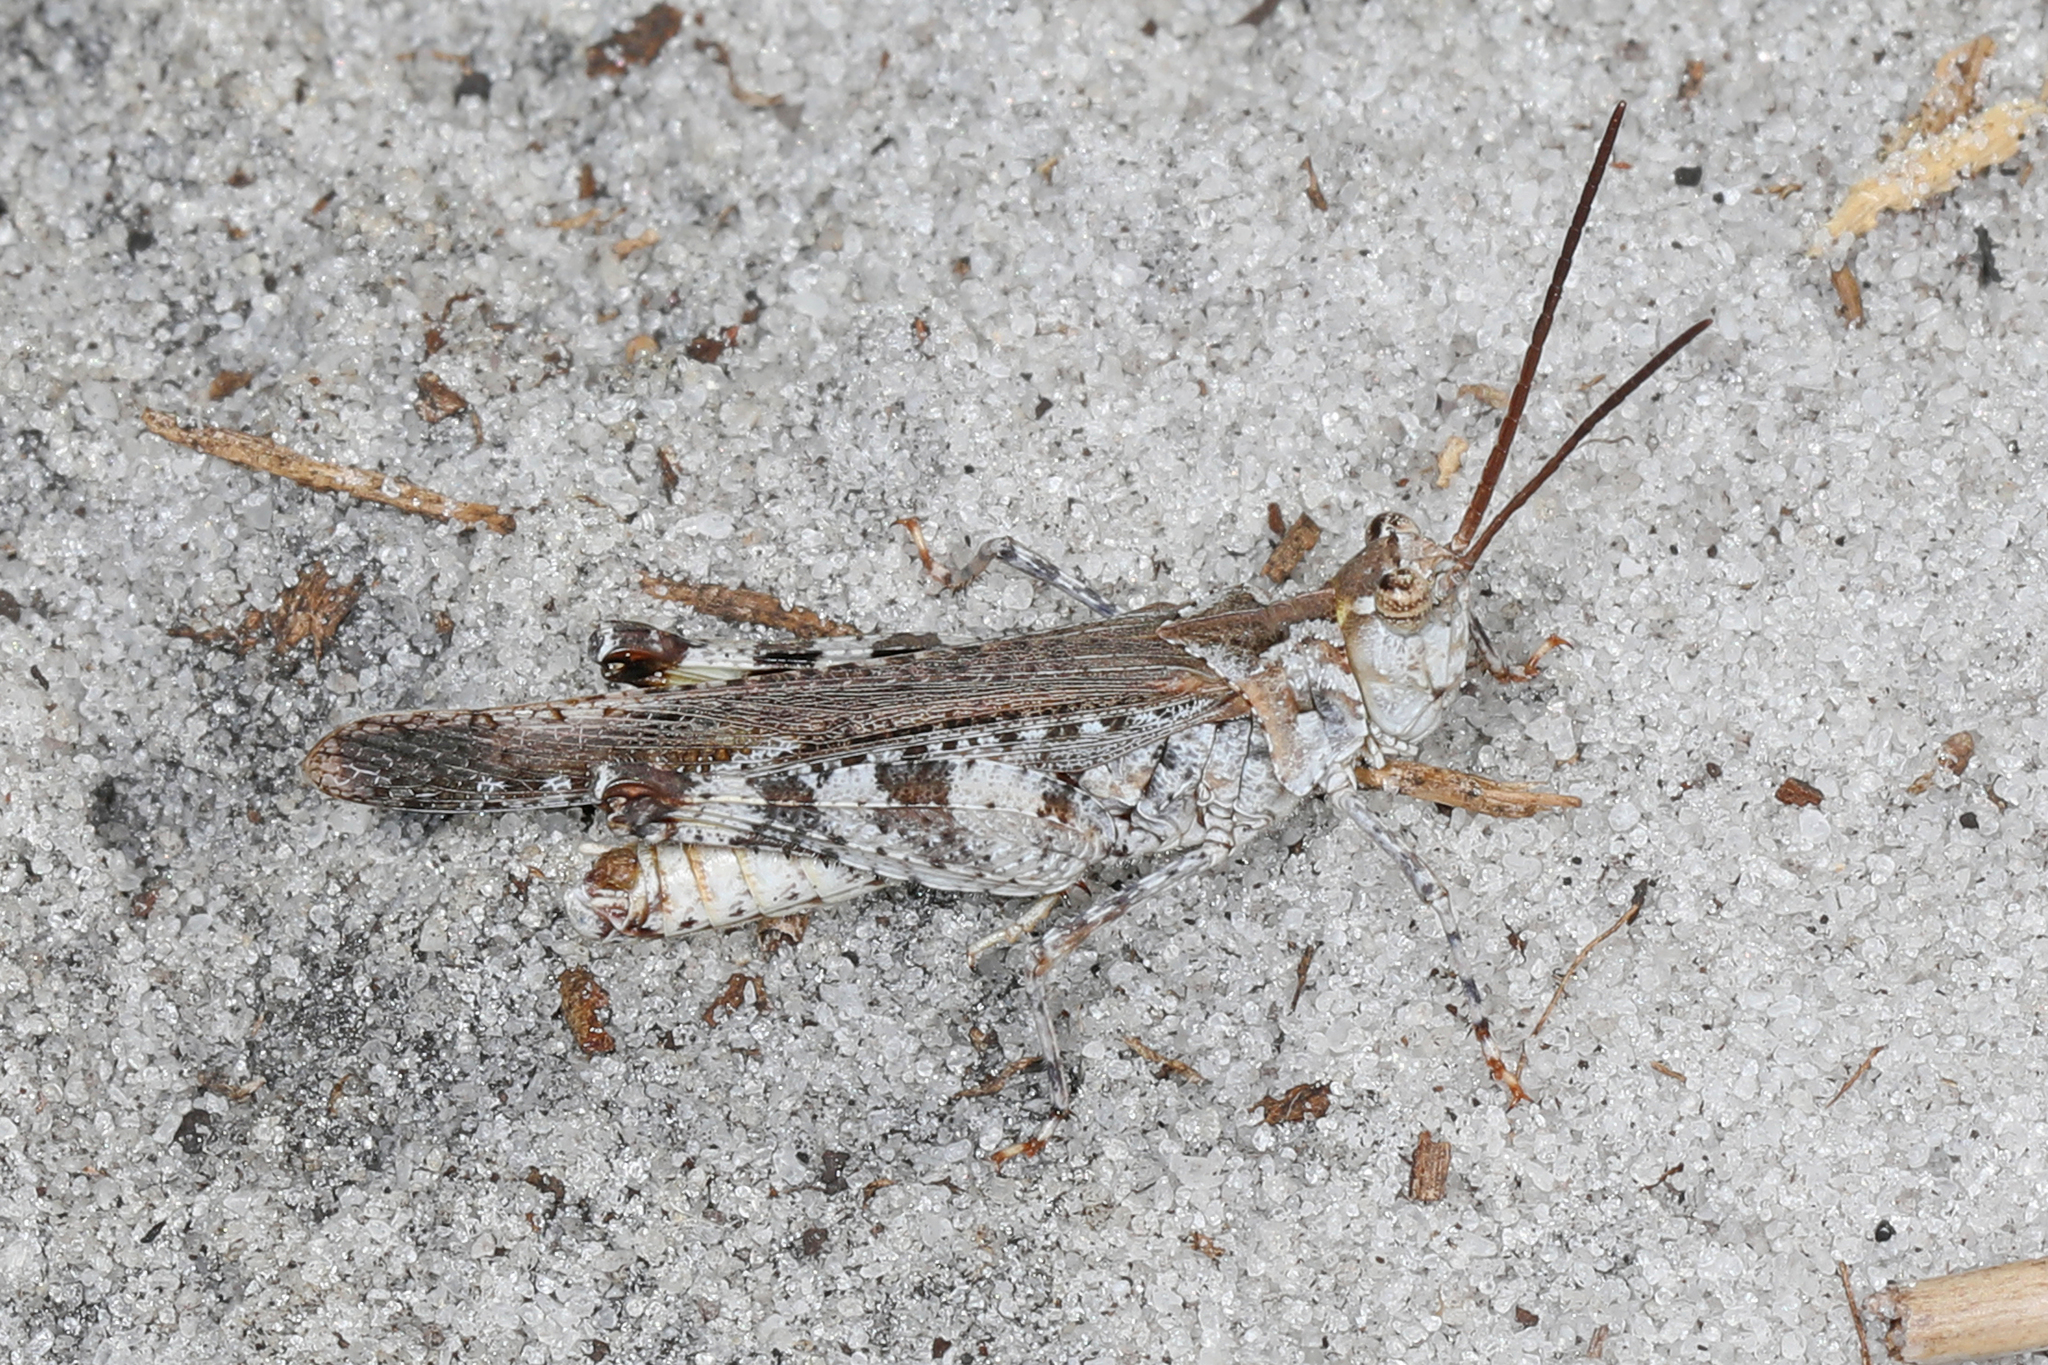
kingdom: Animalia
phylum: Arthropoda
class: Insecta
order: Orthoptera
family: Acrididae
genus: Psinidia
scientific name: Psinidia fenestralis
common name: Long-horned locust
